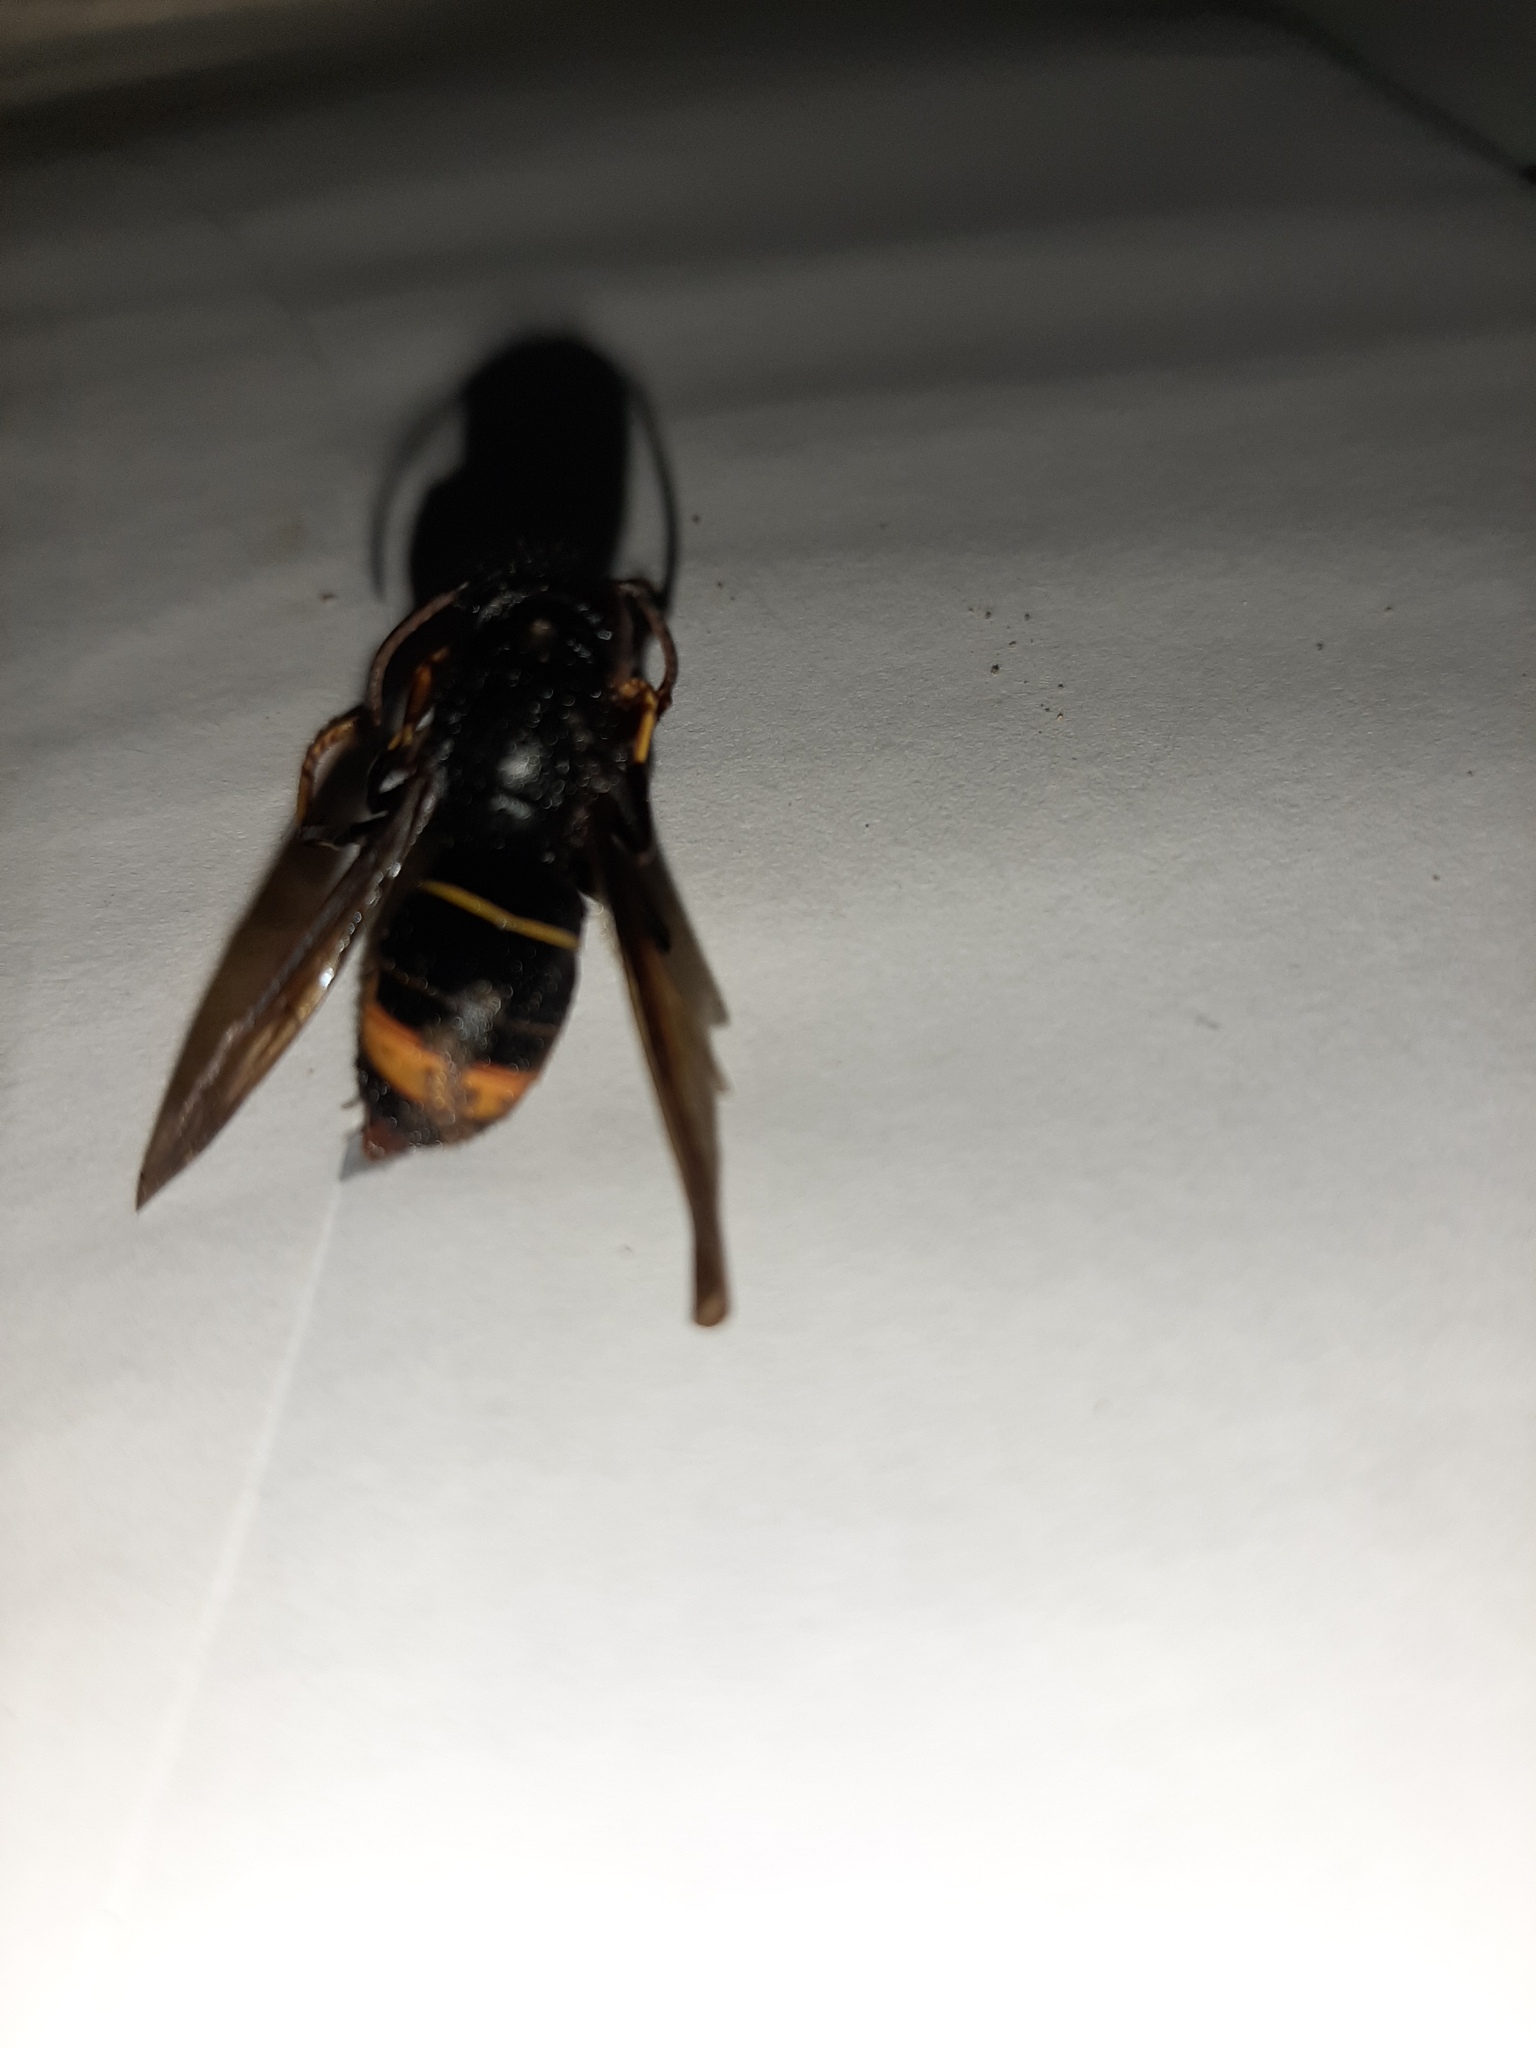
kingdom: Animalia
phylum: Arthropoda
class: Insecta
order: Hymenoptera
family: Vespidae
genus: Vespa
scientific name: Vespa velutina
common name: Asian hornet
